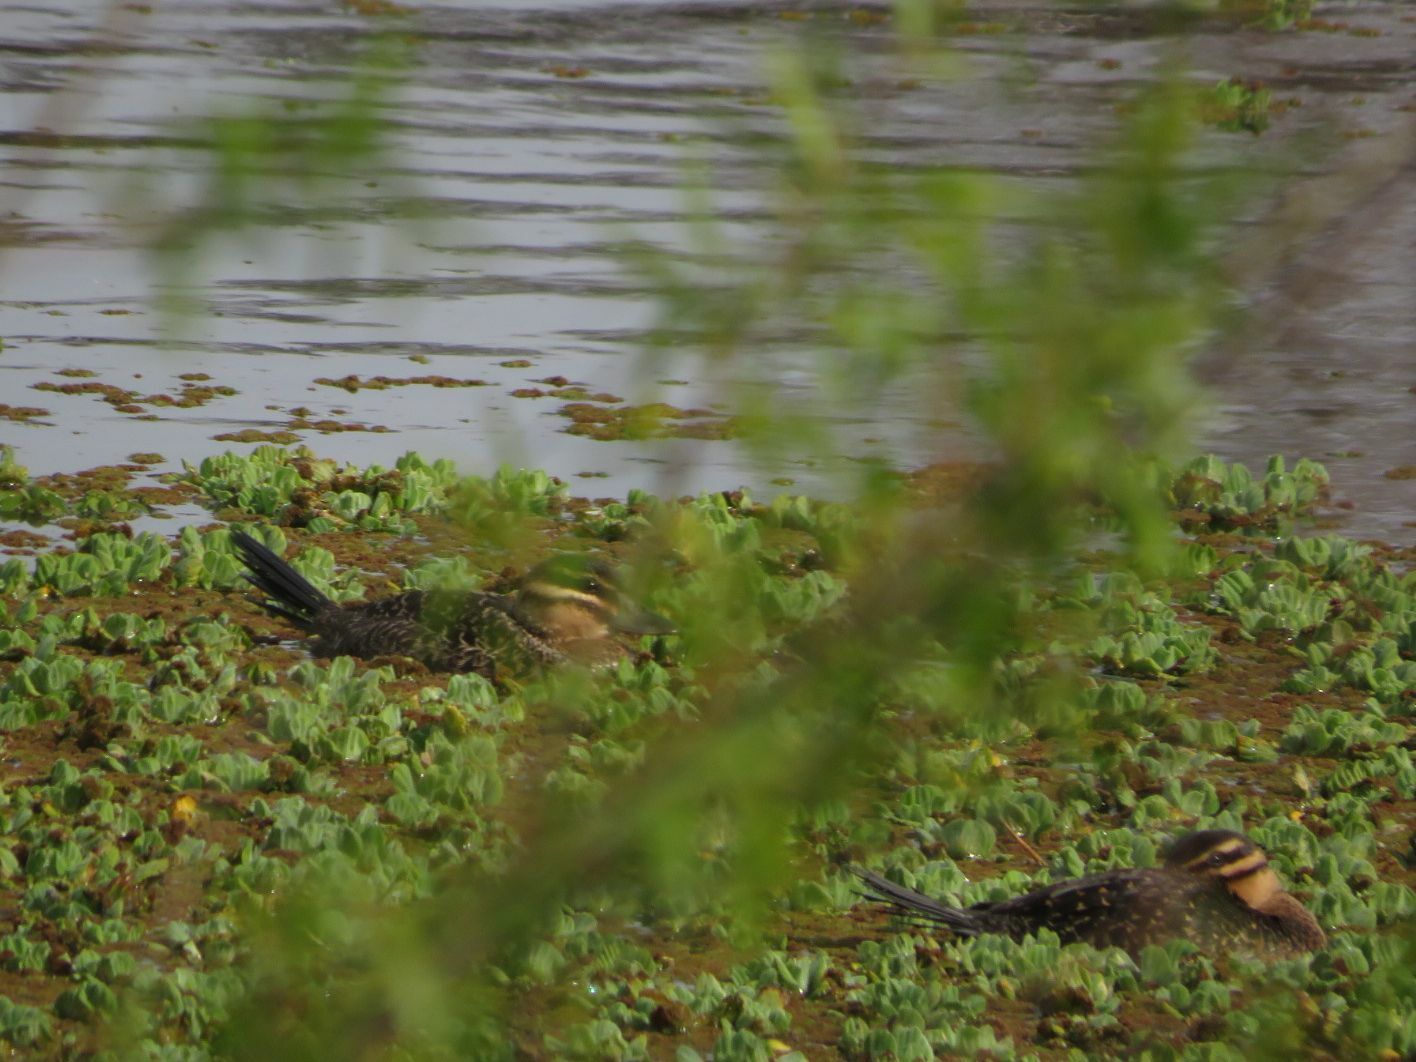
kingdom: Animalia
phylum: Chordata
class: Aves
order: Anseriformes
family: Anatidae
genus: Nomonyx
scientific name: Nomonyx dominicus
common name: Masked duck
